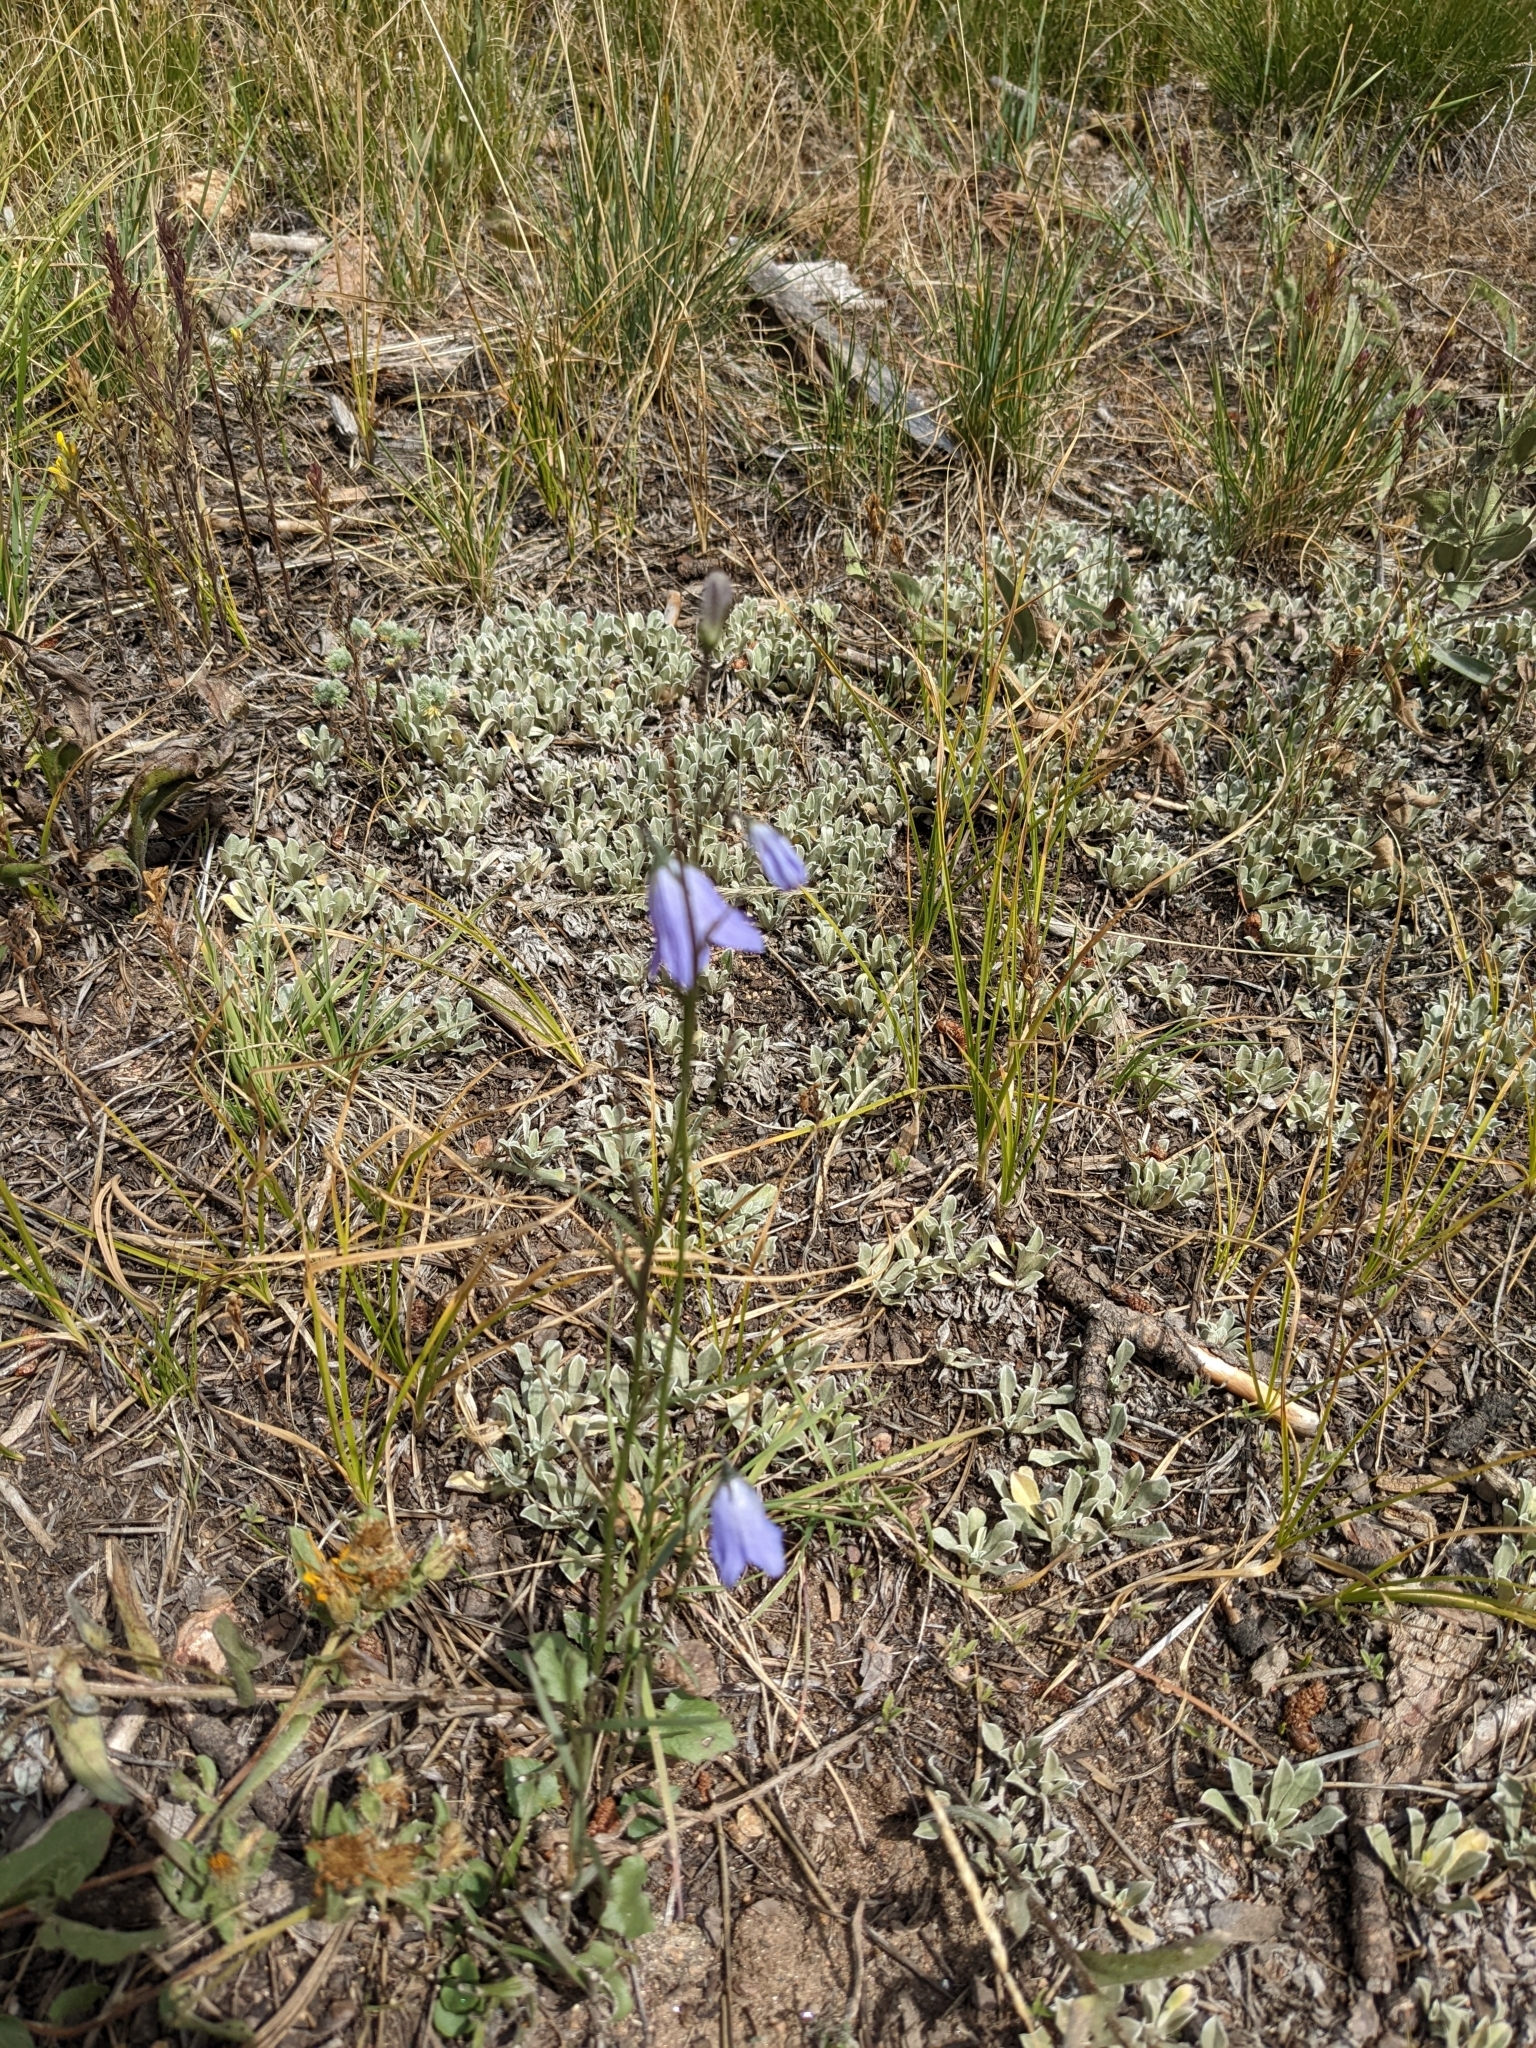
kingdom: Plantae
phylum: Tracheophyta
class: Magnoliopsida
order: Asterales
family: Campanulaceae
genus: Campanula
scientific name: Campanula petiolata
